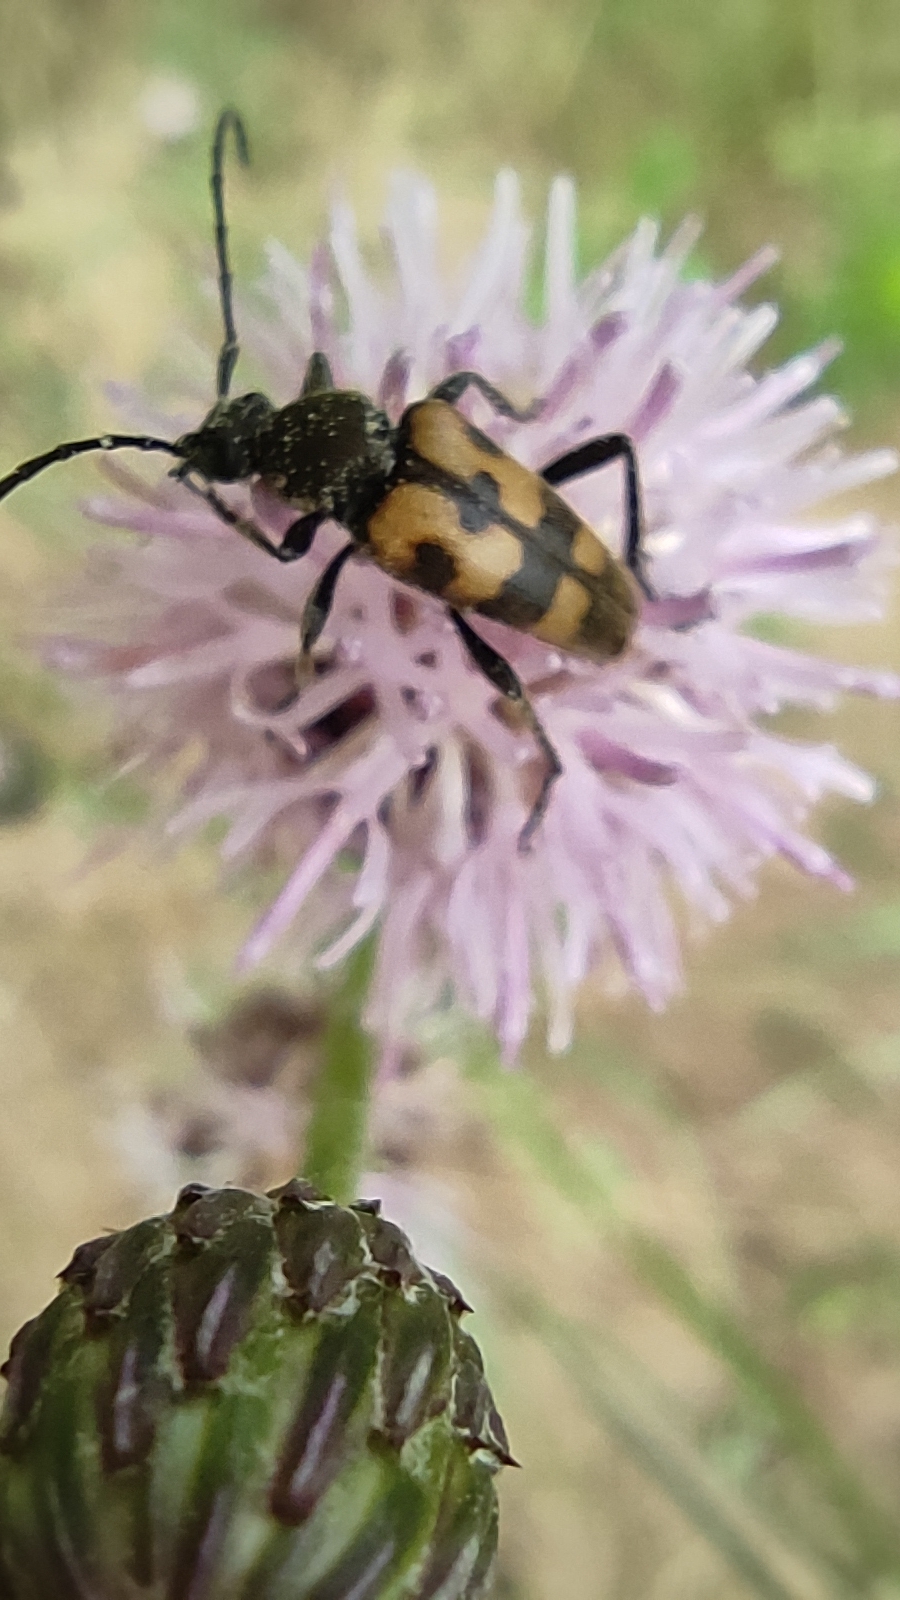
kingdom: Animalia
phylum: Arthropoda
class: Insecta
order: Coleoptera
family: Cerambycidae
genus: Pachytodes
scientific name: Pachytodes
